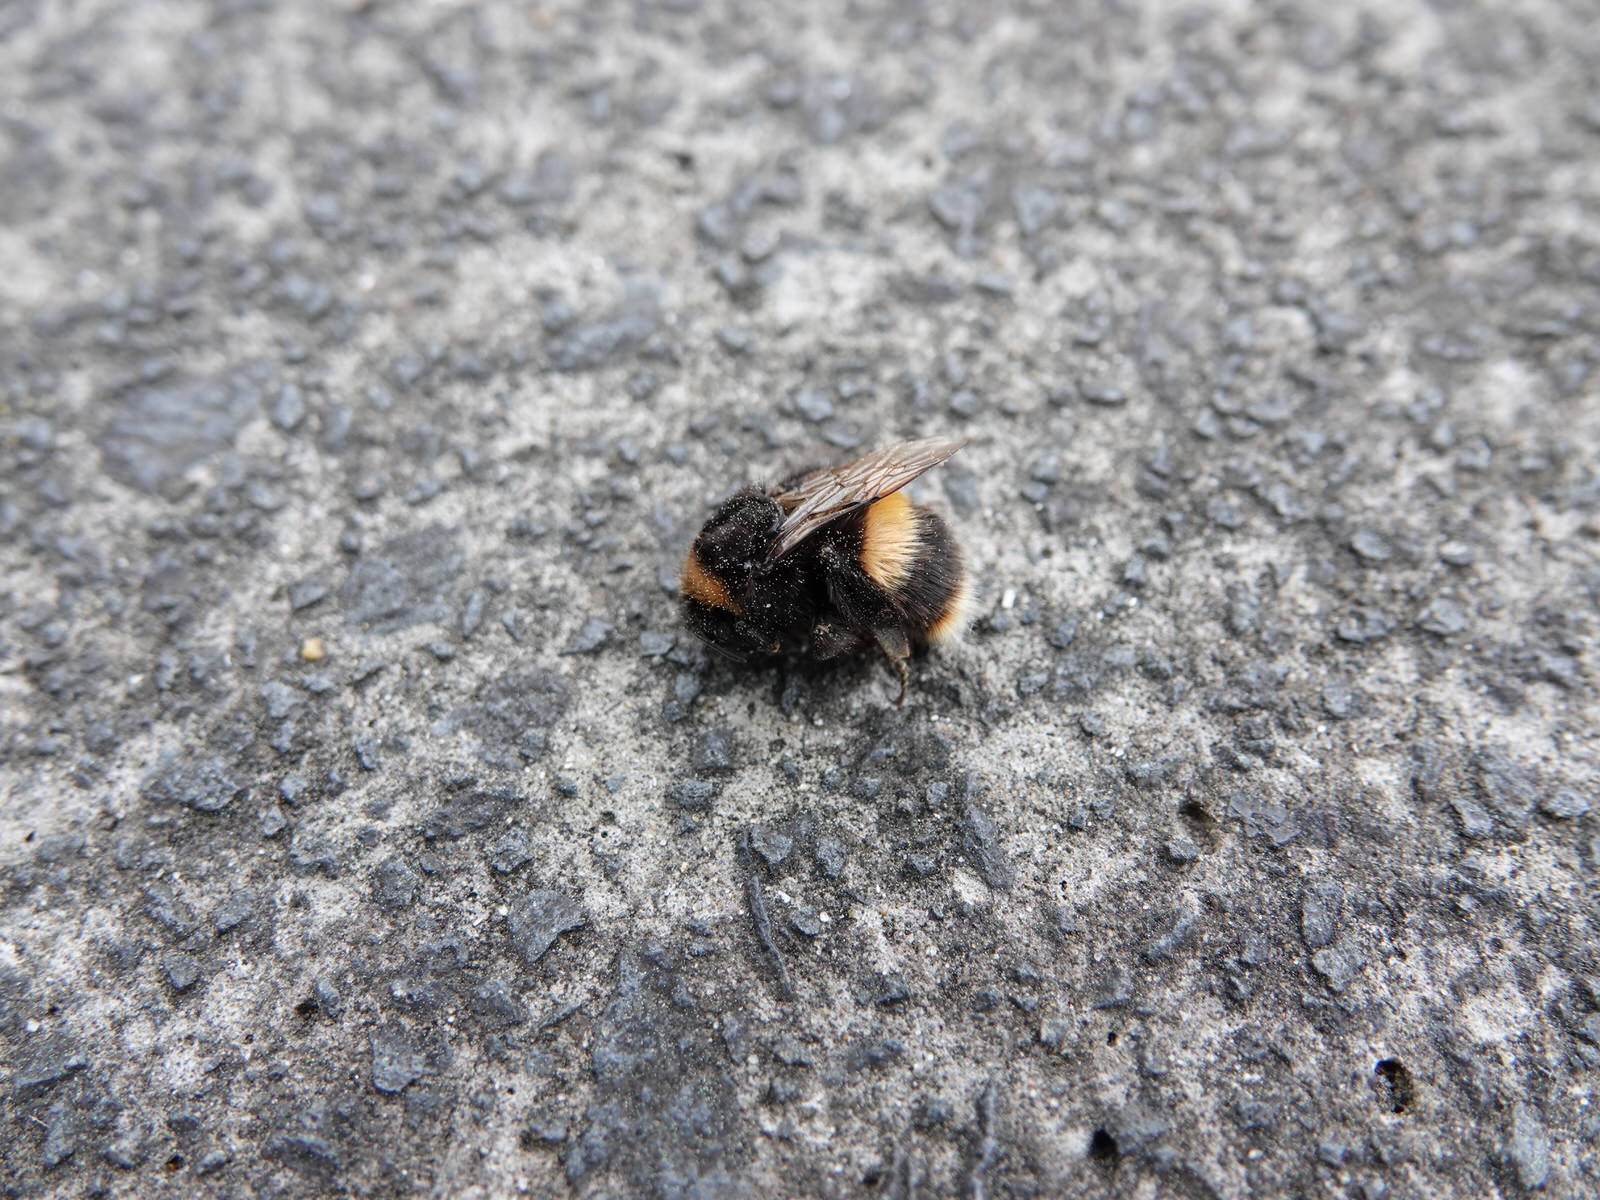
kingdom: Animalia
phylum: Arthropoda
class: Insecta
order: Hymenoptera
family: Apidae
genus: Bombus
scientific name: Bombus terrestris
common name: Buff-tailed bumblebee
